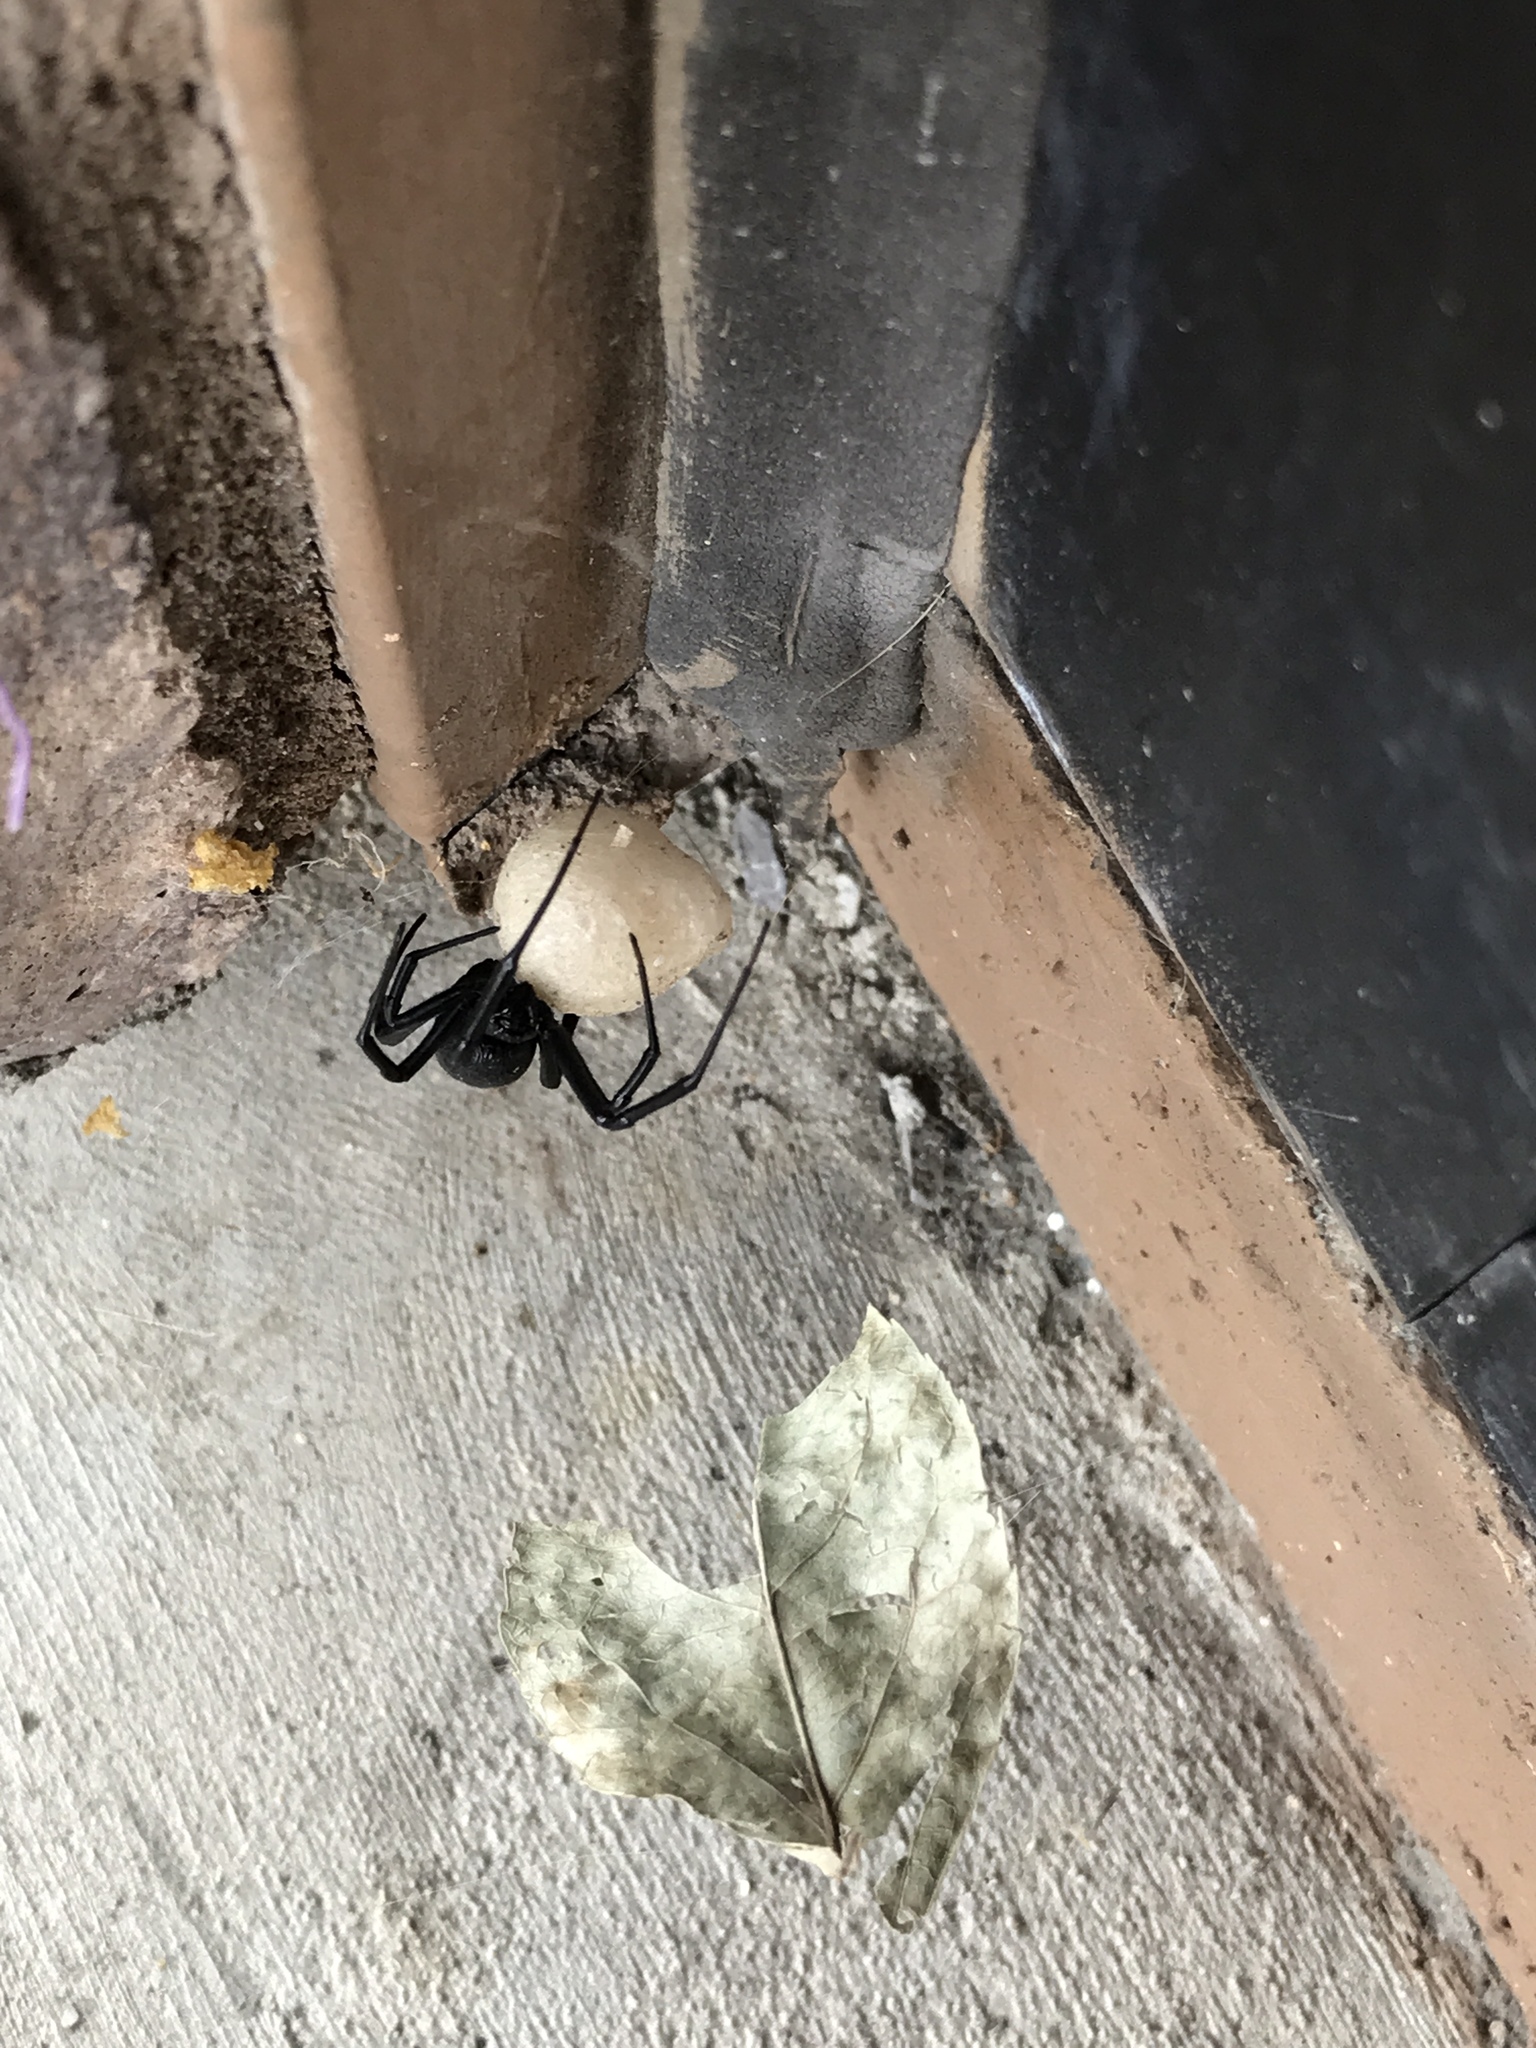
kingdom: Animalia
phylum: Arthropoda
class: Arachnida
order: Araneae
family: Theridiidae
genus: Latrodectus
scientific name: Latrodectus hesperus
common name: Western black widow
